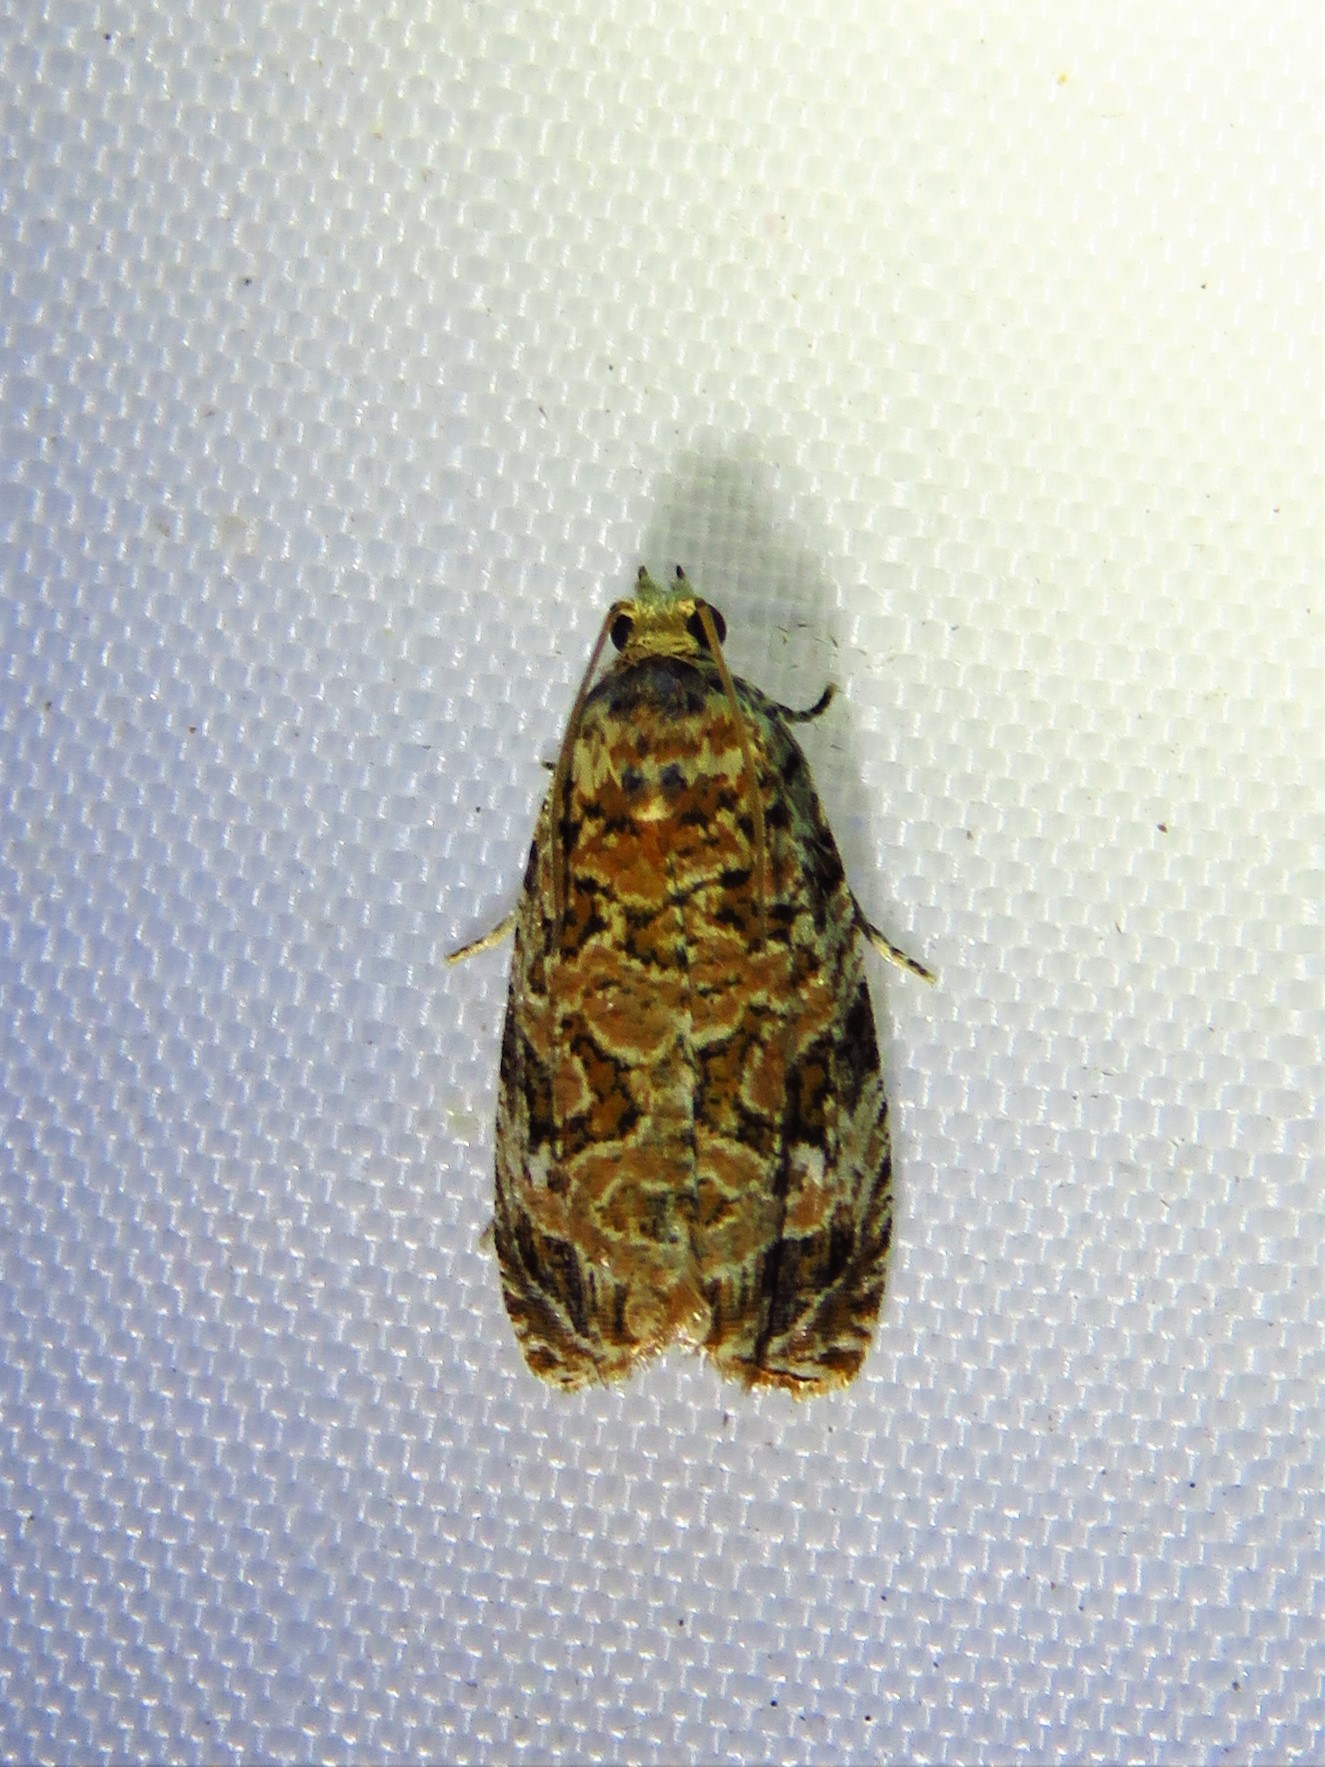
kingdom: Animalia
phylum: Arthropoda
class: Insecta
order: Lepidoptera
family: Tortricidae
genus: Phaecasiophora
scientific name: Phaecasiophora niveiguttana
